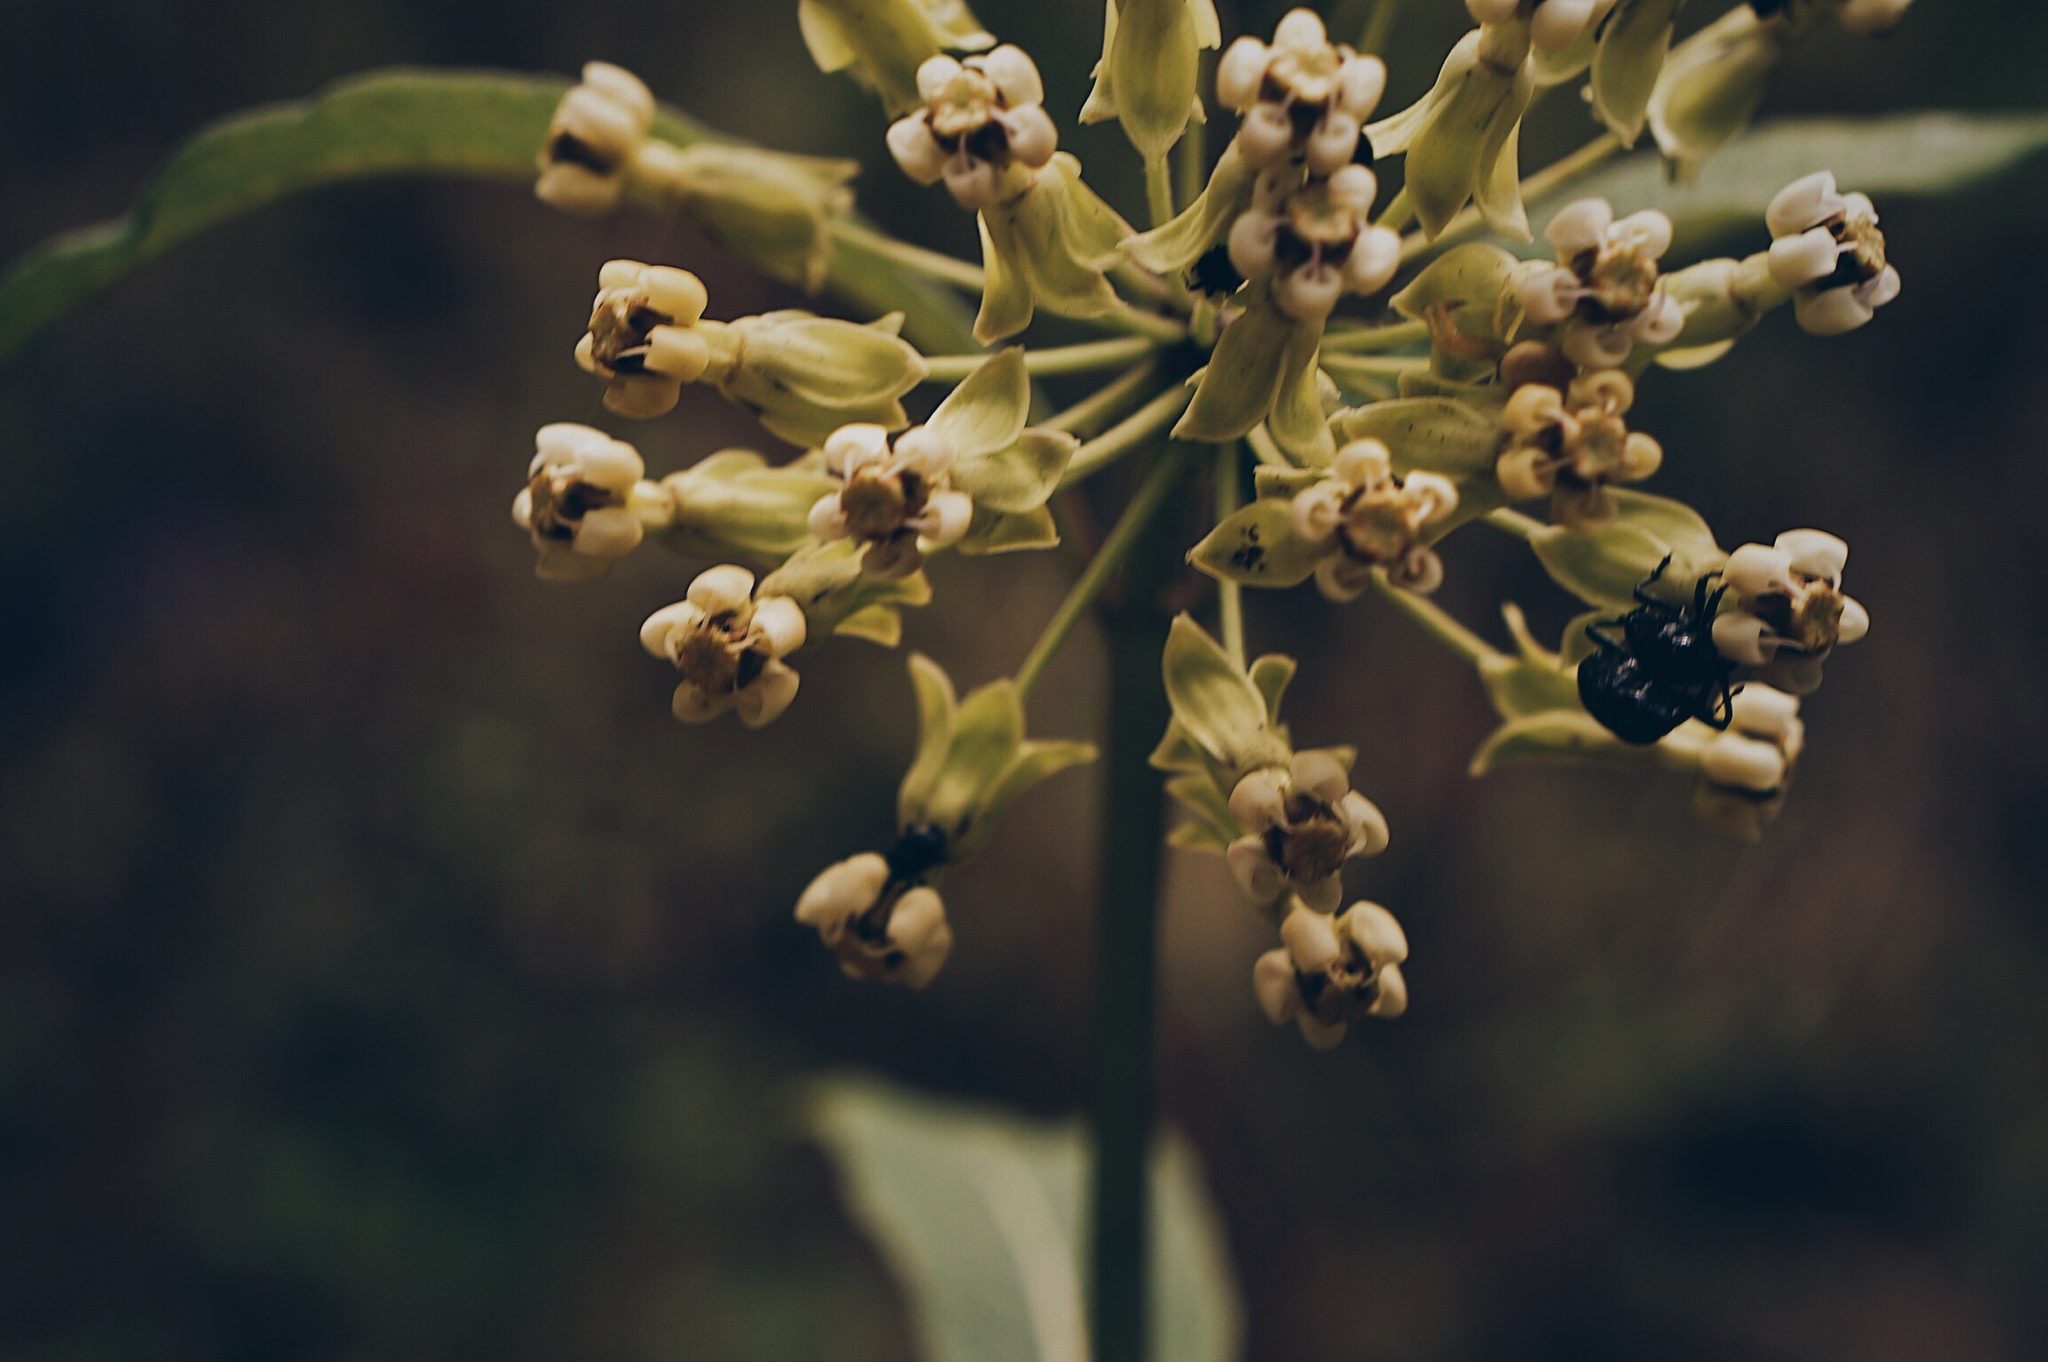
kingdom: Plantae
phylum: Tracheophyta
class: Magnoliopsida
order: Gentianales
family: Apocynaceae
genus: Asclepias
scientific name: Asclepias similis
